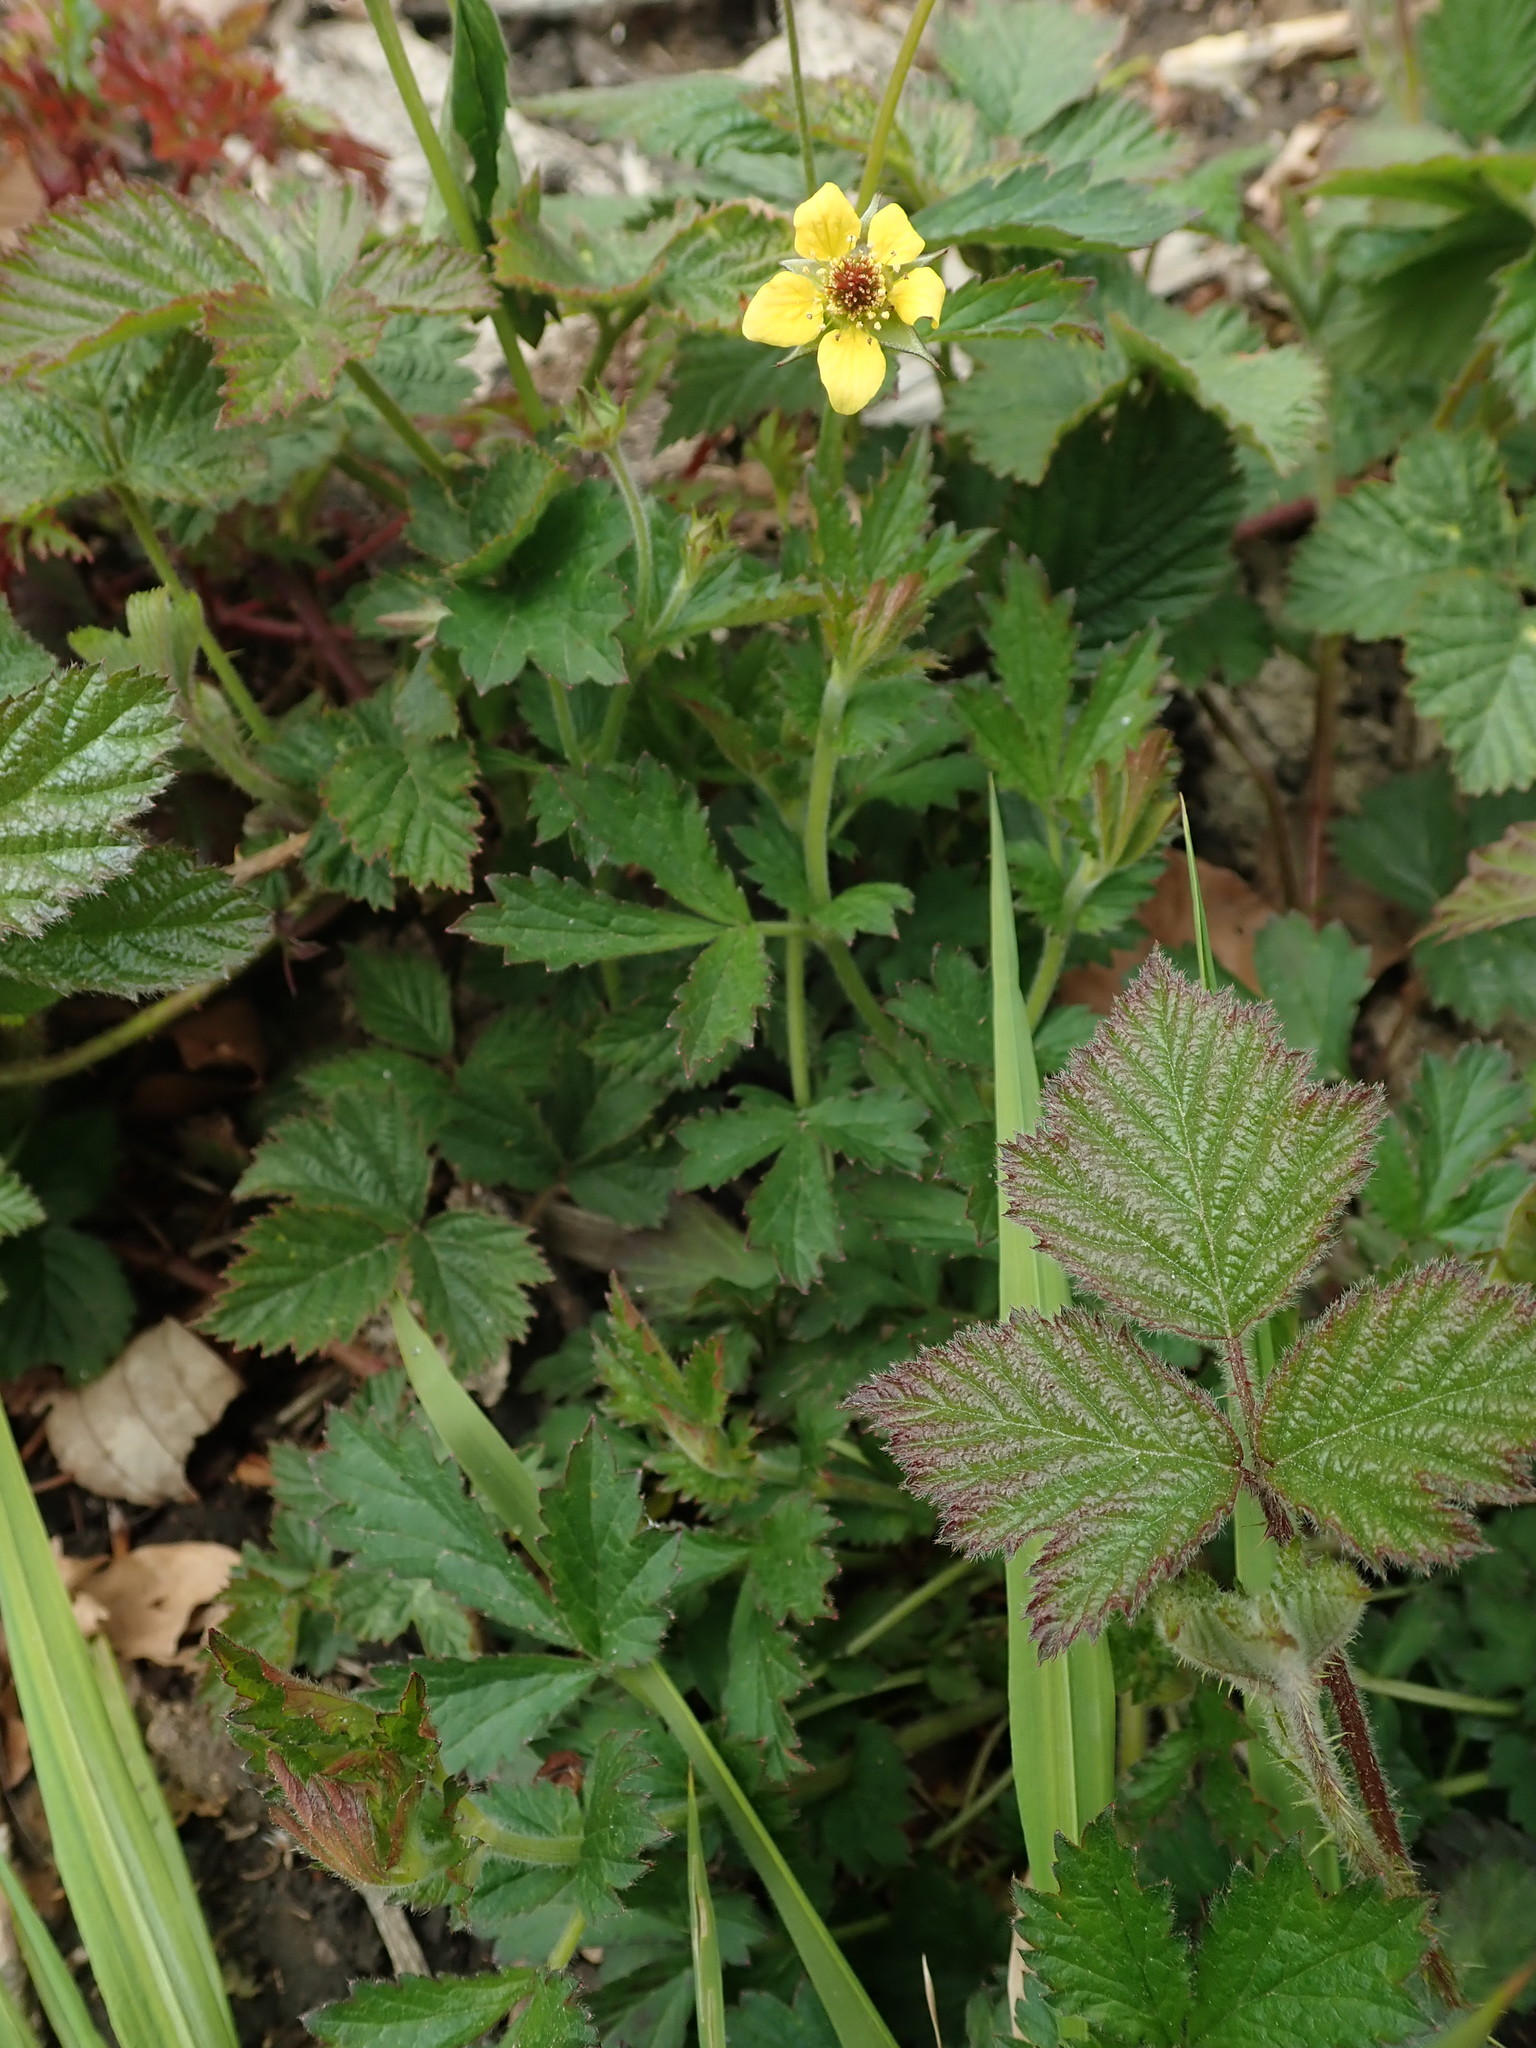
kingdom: Plantae
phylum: Tracheophyta
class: Magnoliopsida
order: Rosales
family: Rosaceae
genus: Geum
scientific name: Geum urbanum
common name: Wood avens
